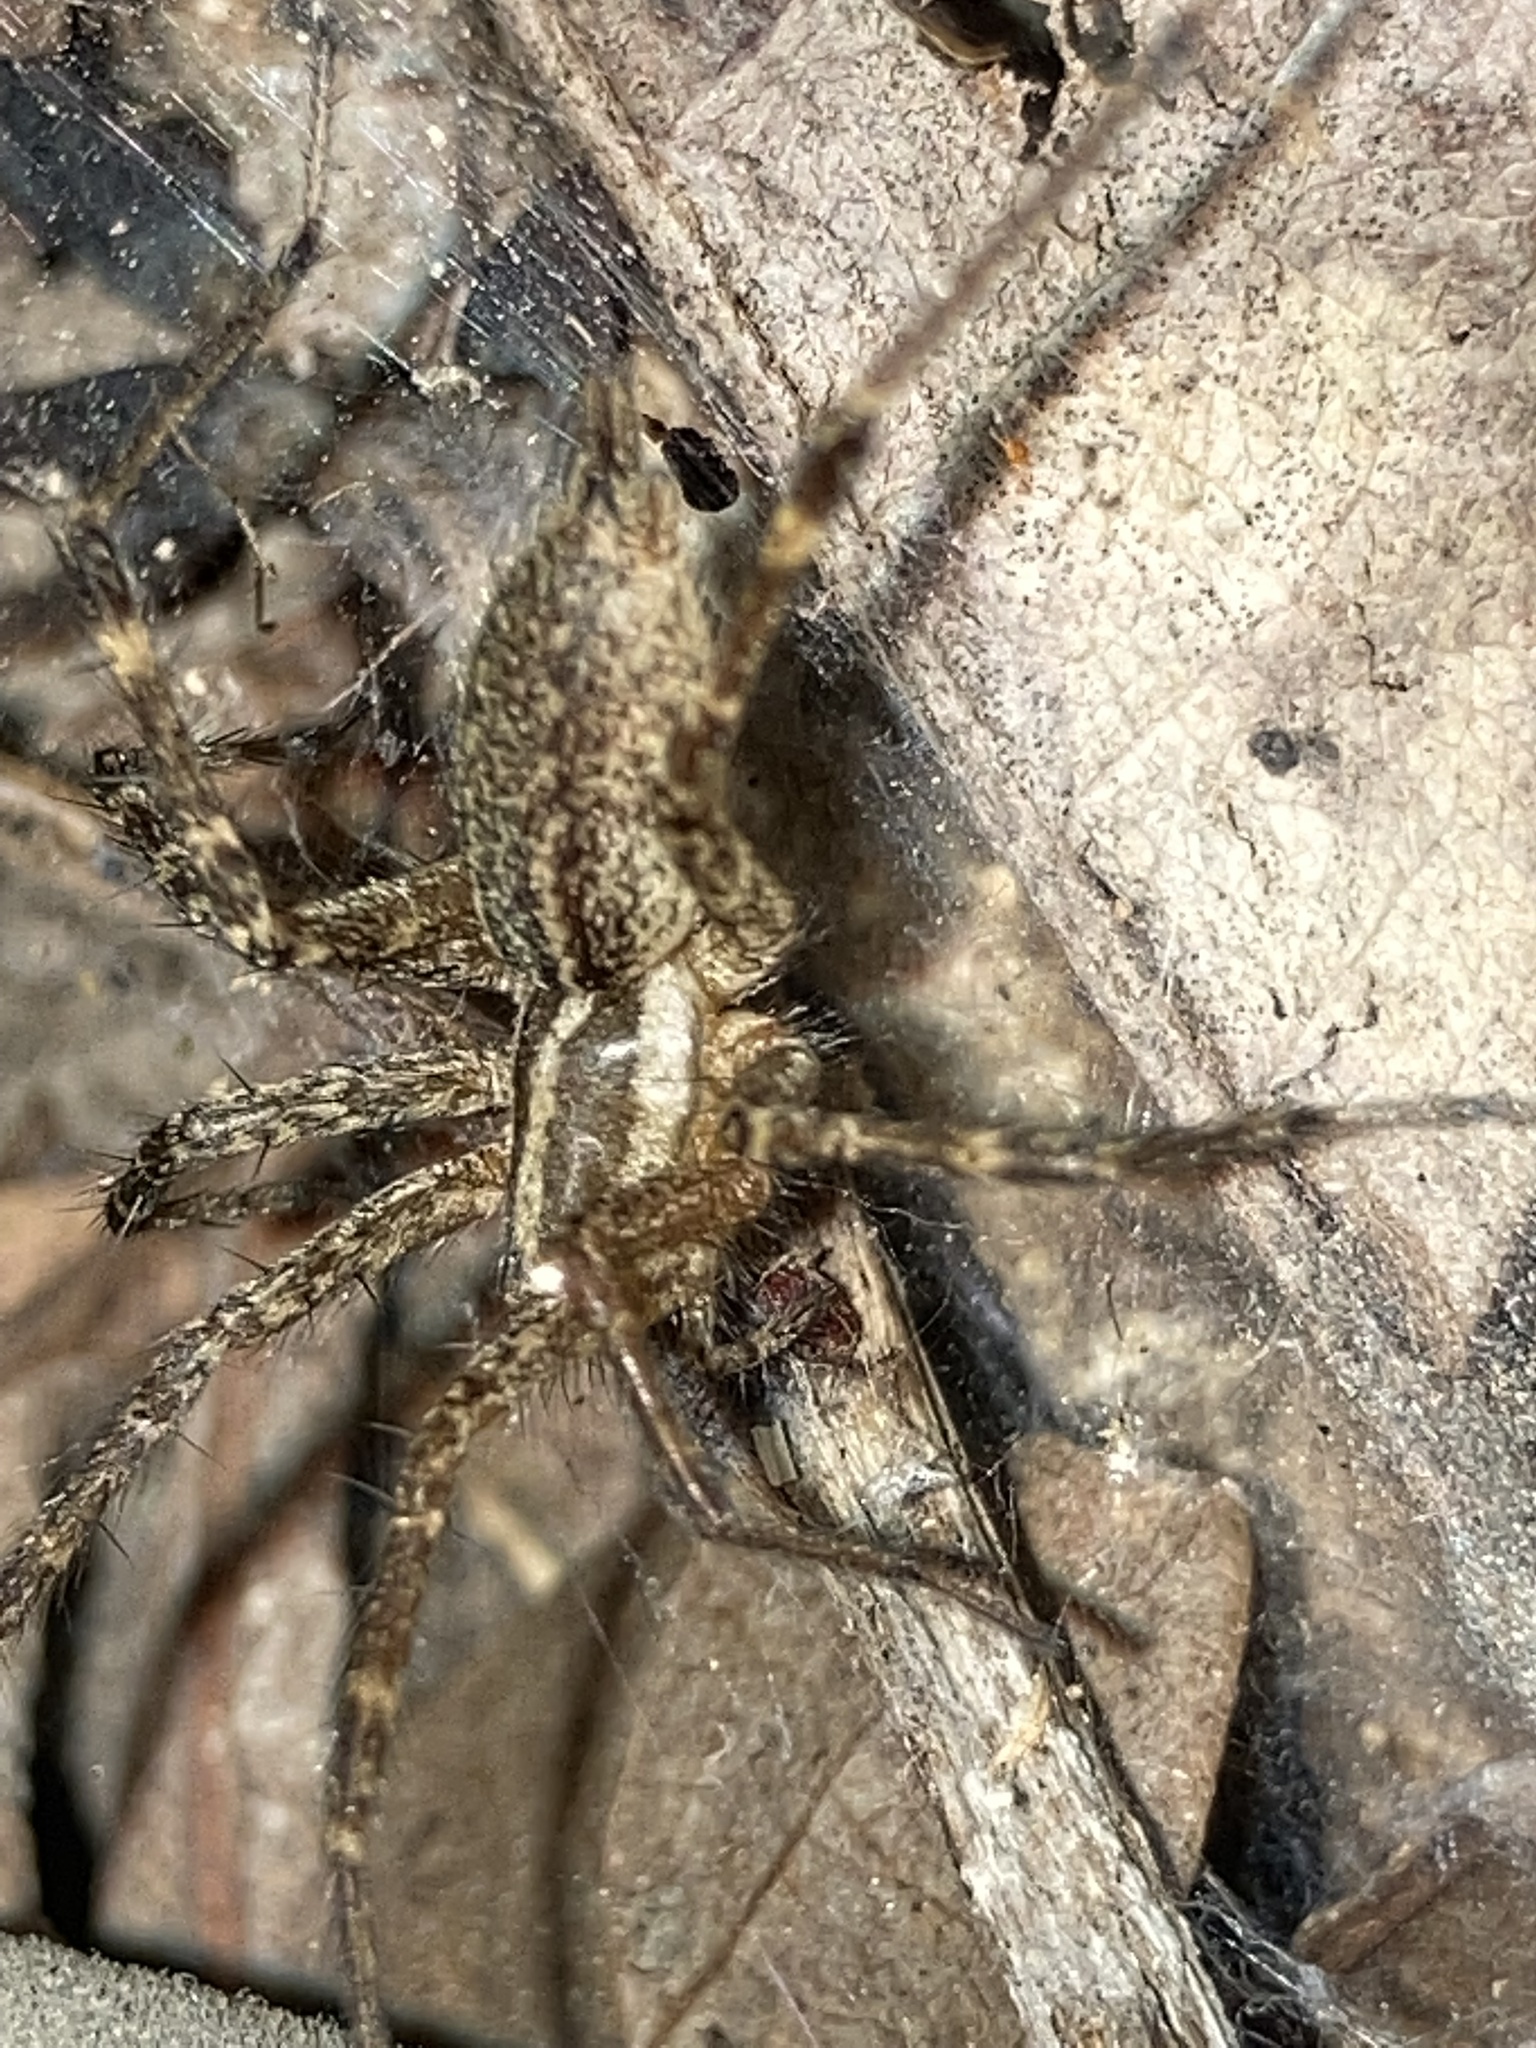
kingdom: Animalia
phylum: Arthropoda
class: Arachnida
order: Araneae
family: Agelenidae
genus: Agelenopsis
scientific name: Agelenopsis
